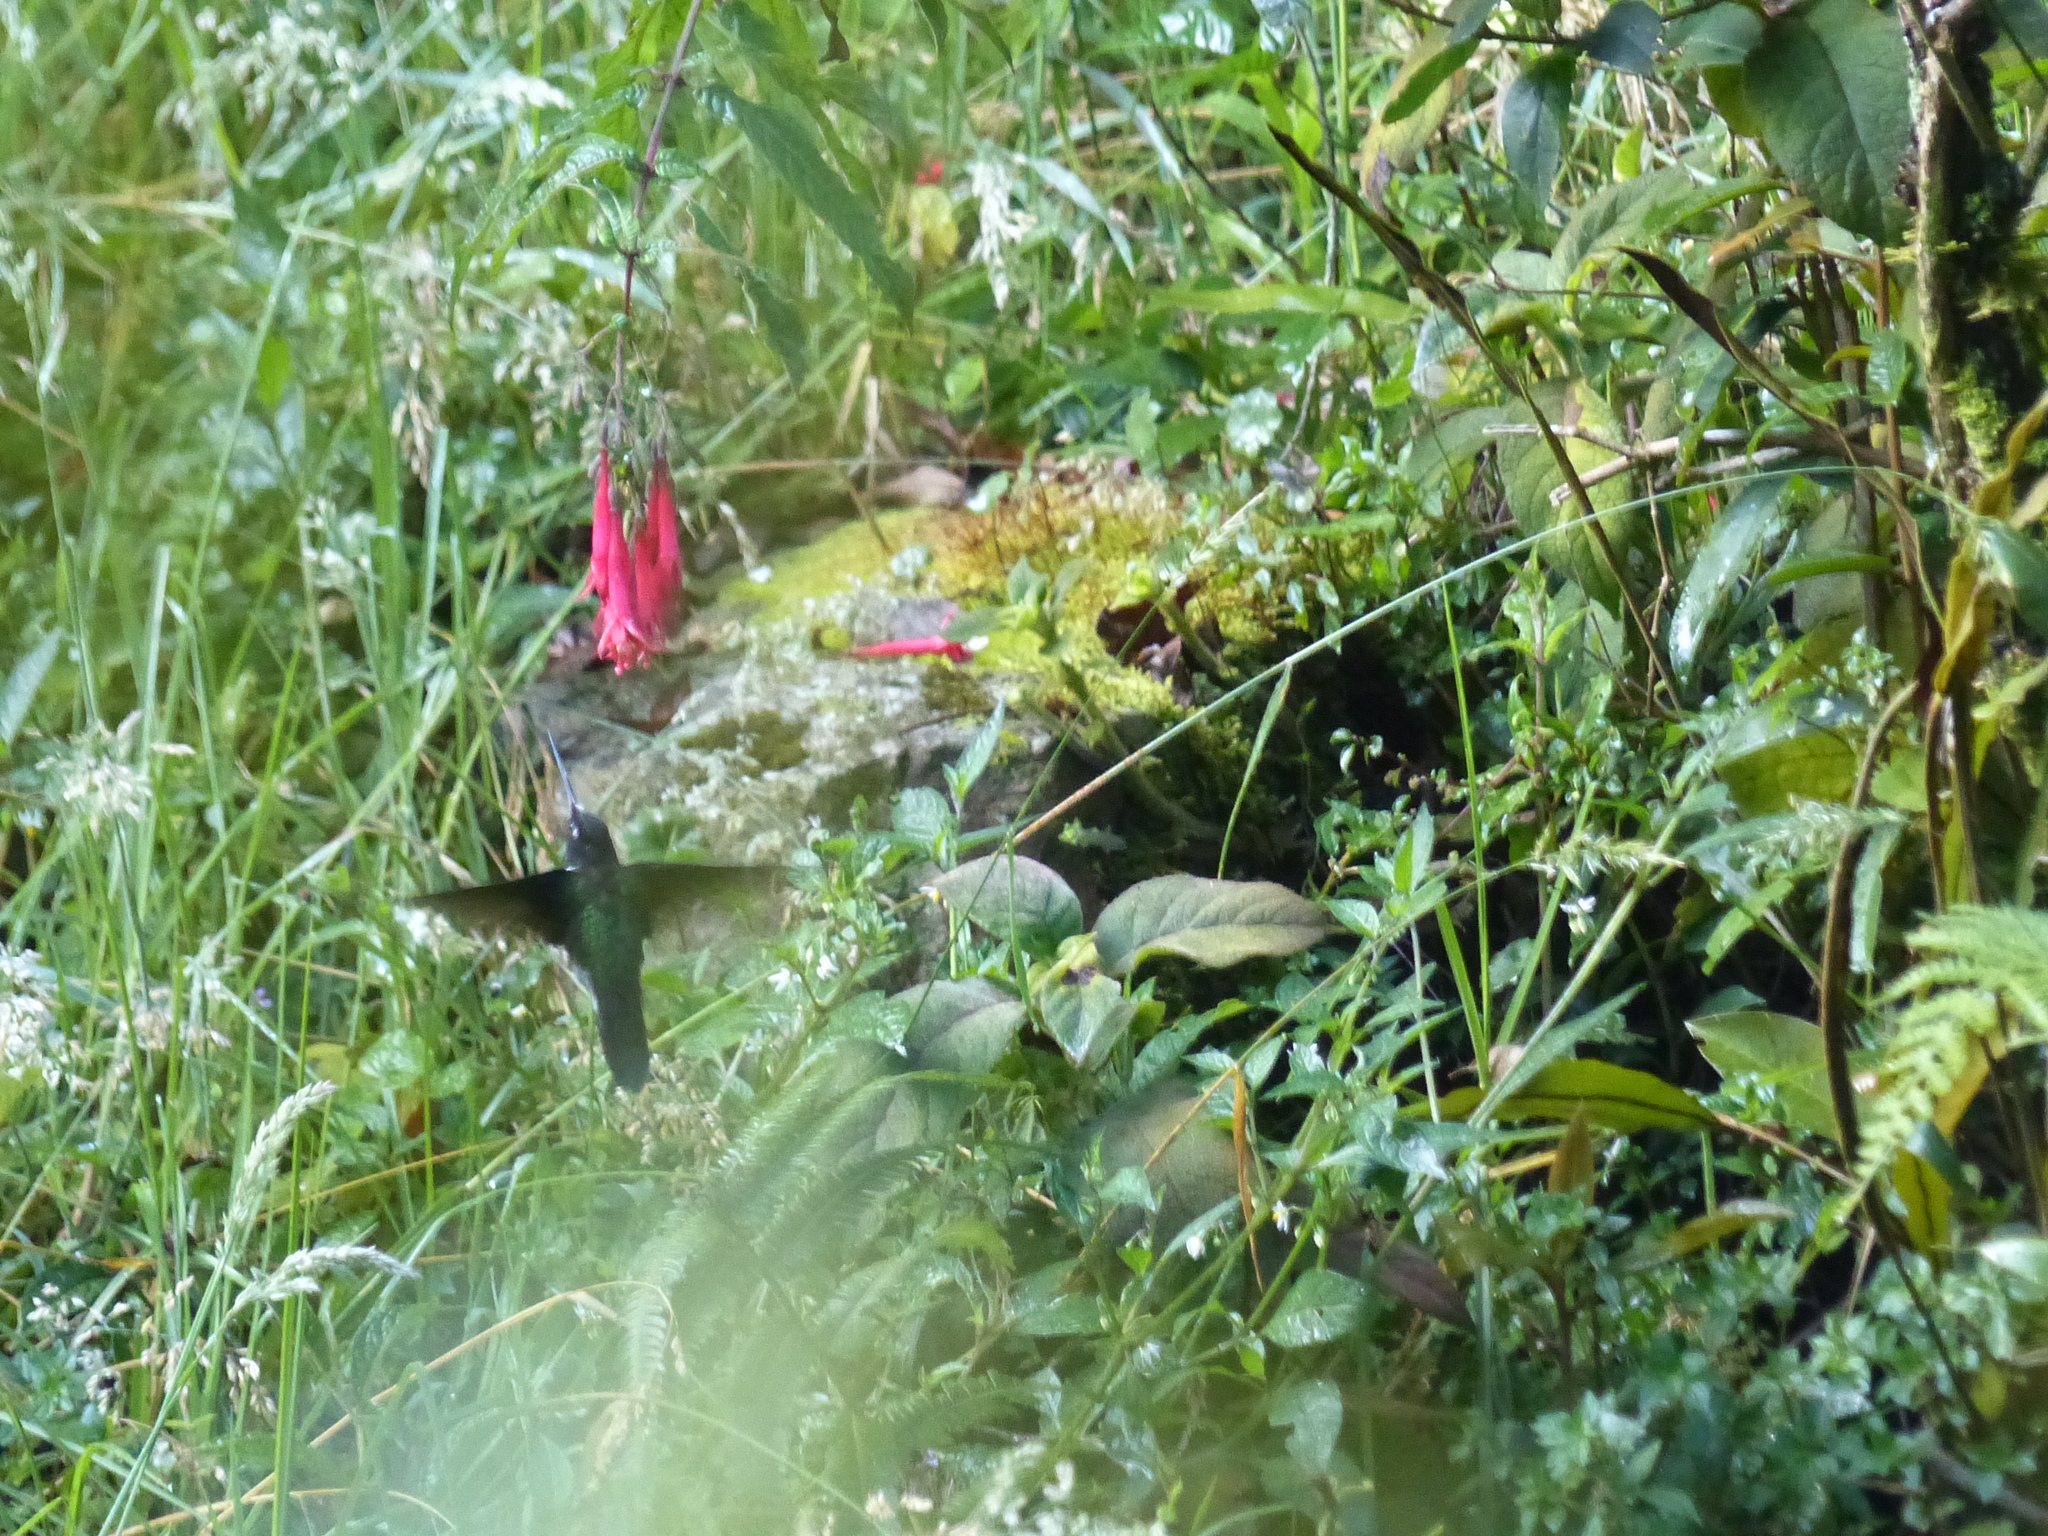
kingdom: Animalia
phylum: Chordata
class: Aves
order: Apodiformes
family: Trochilidae
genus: Coeligena
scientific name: Coeligena torquata
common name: Collared inca
